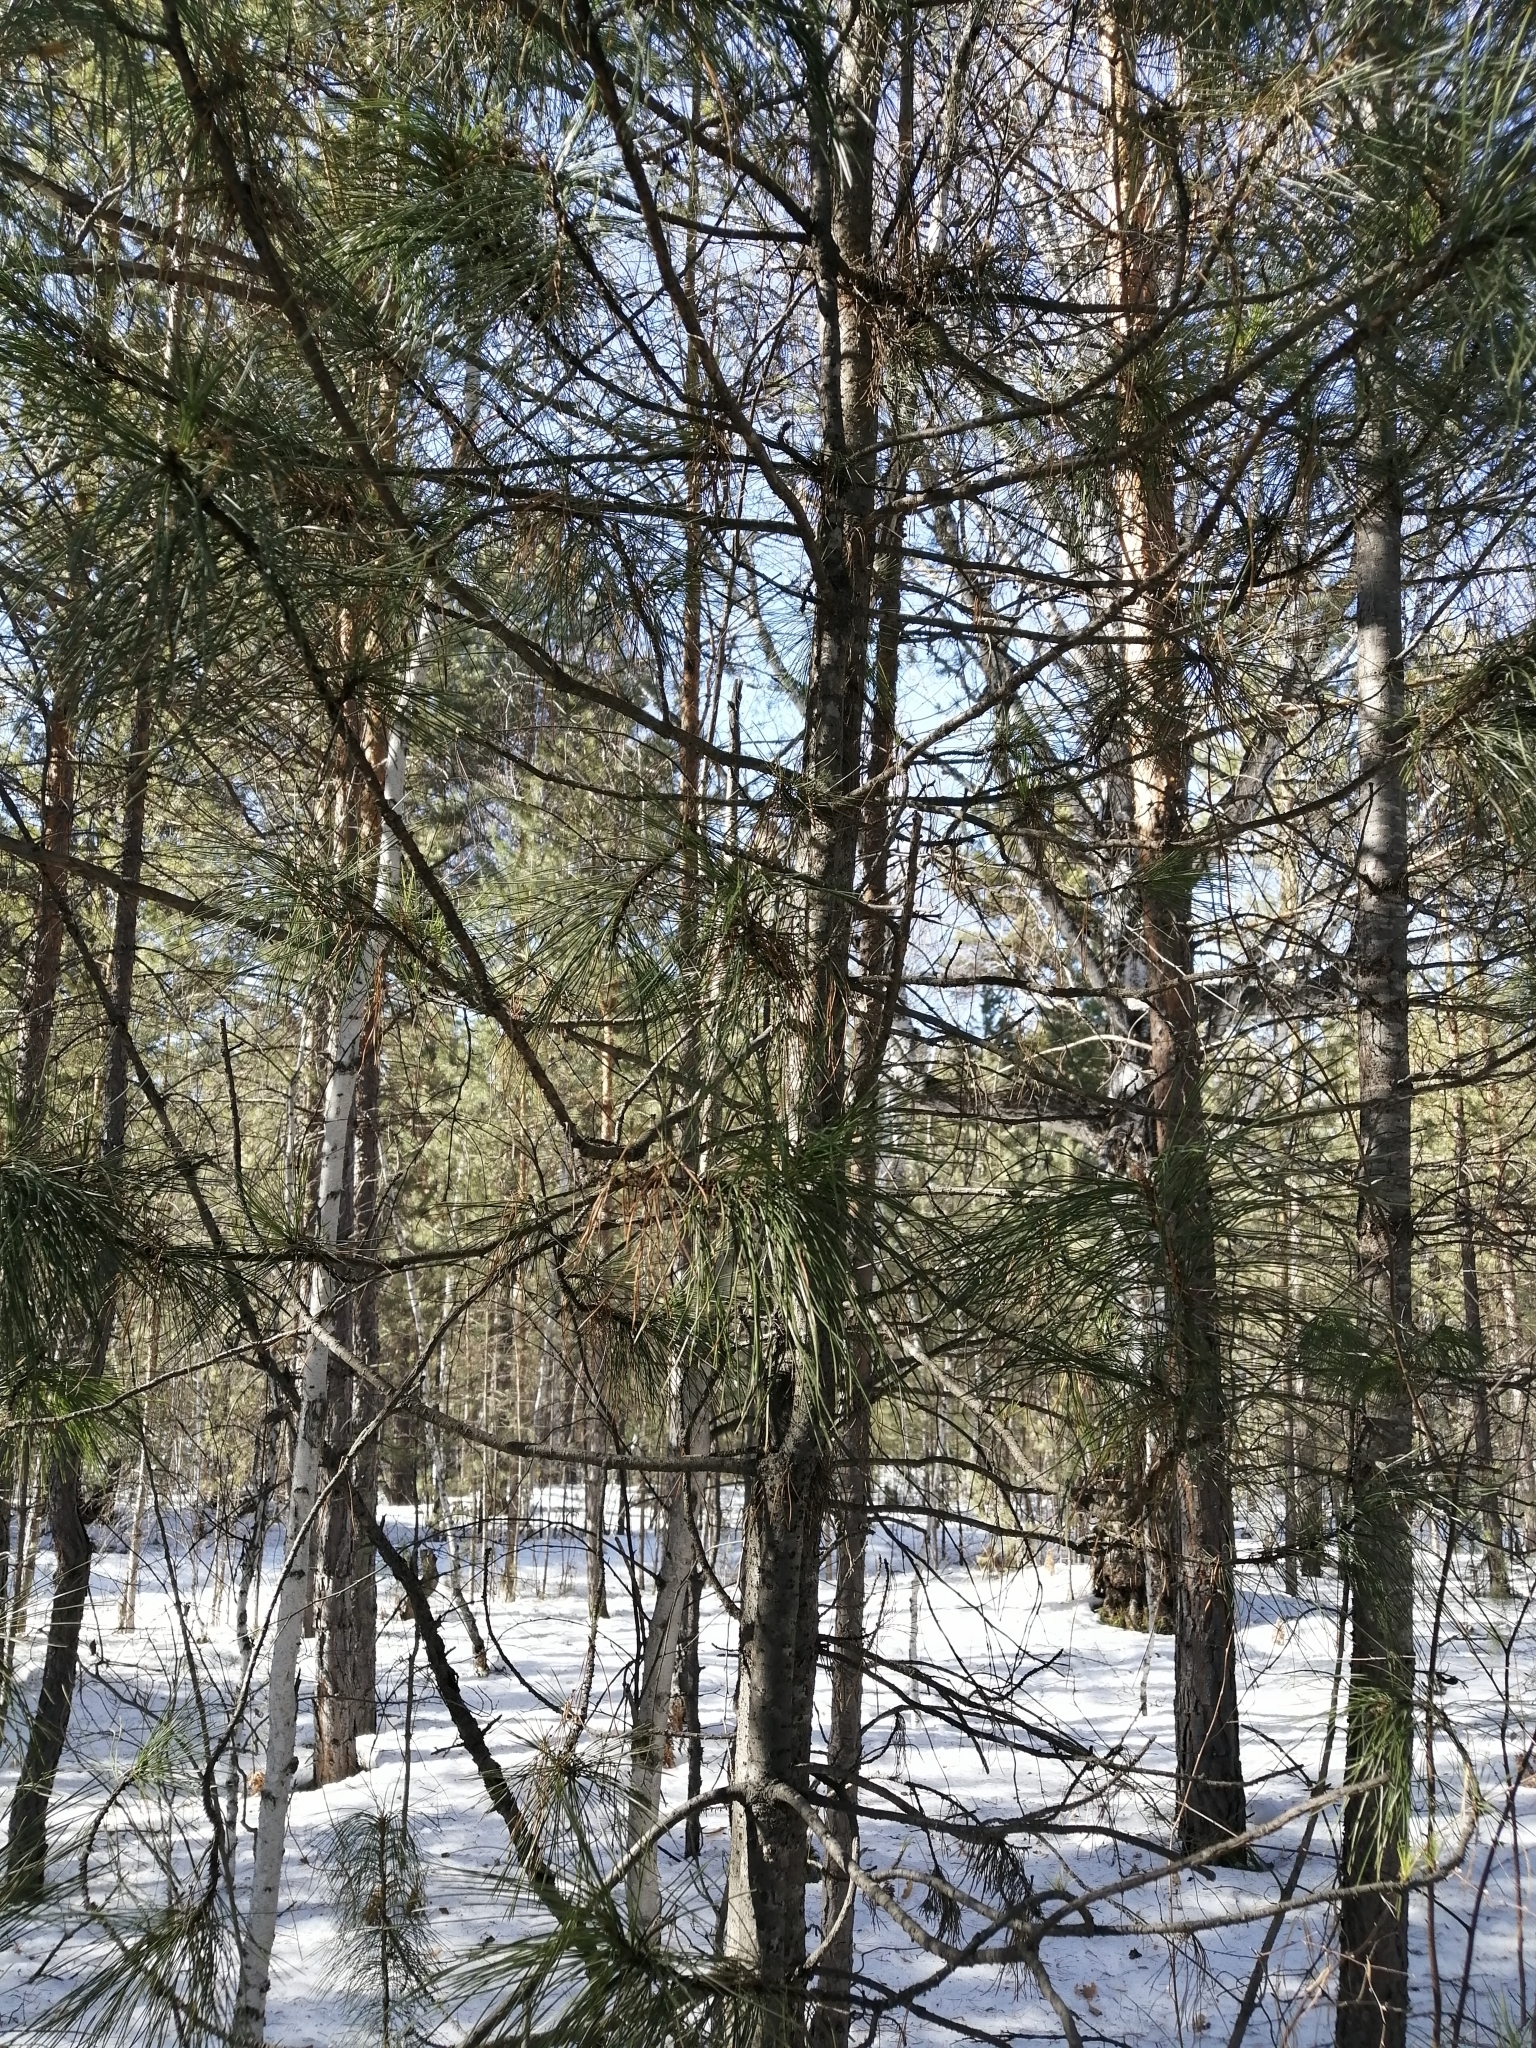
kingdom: Plantae
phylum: Tracheophyta
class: Pinopsida
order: Pinales
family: Pinaceae
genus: Pinus
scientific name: Pinus sibirica
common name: Siberian pine
